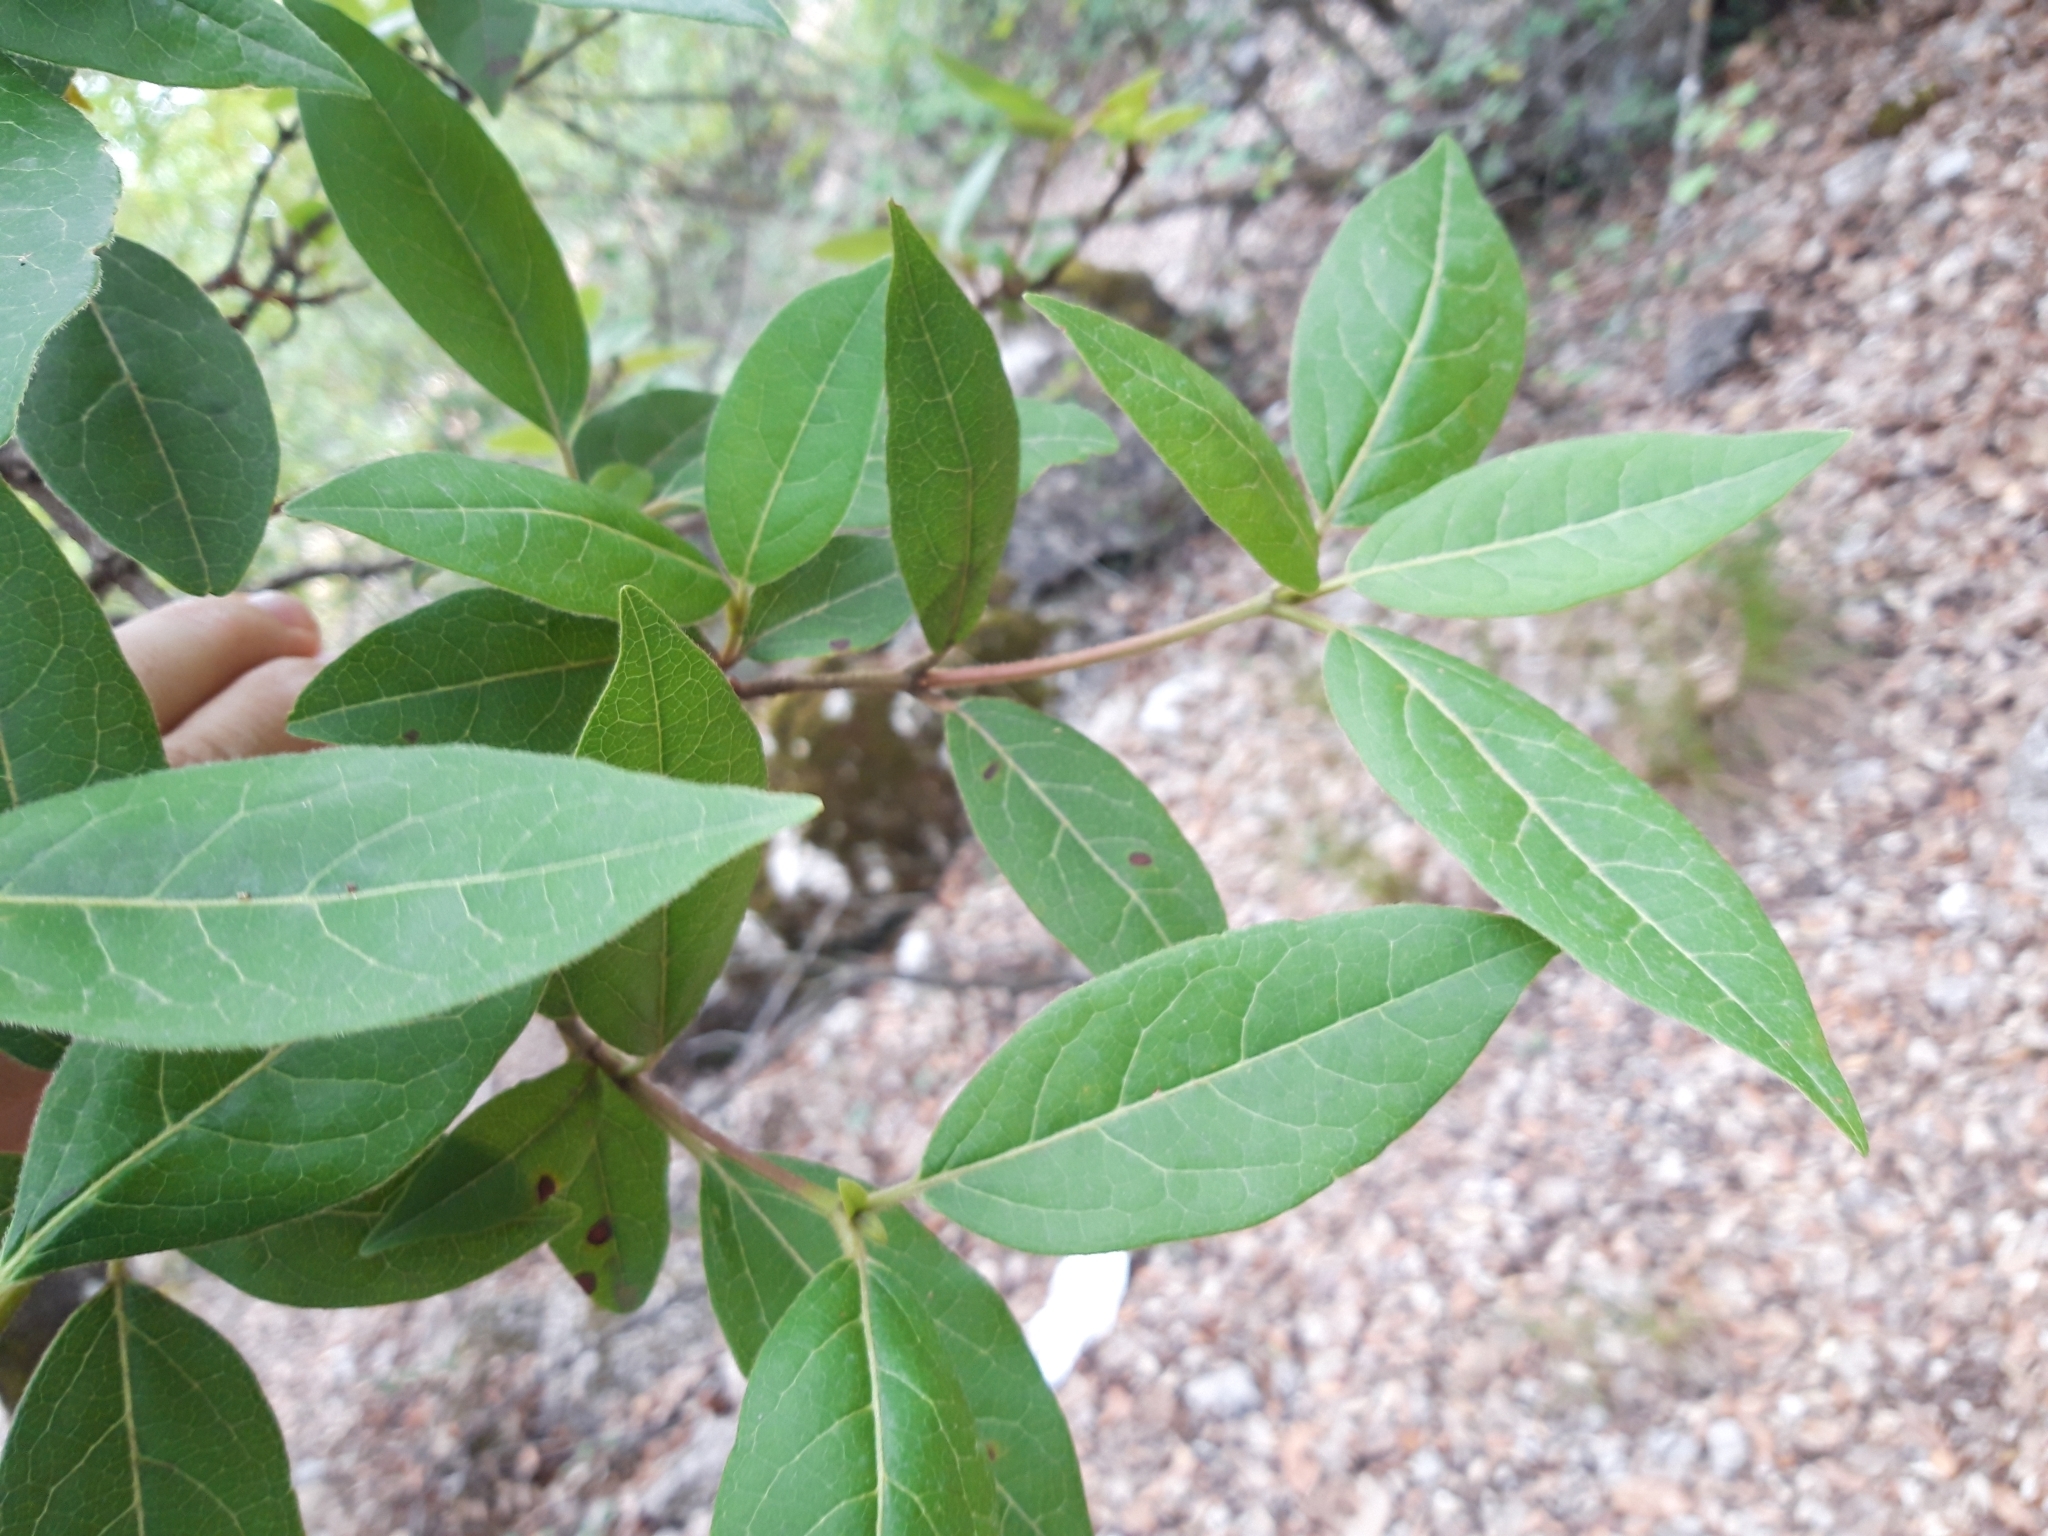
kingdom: Plantae
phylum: Tracheophyta
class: Magnoliopsida
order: Dipsacales
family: Viburnaceae
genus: Viburnum
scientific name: Viburnum tinus
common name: Laurustinus
